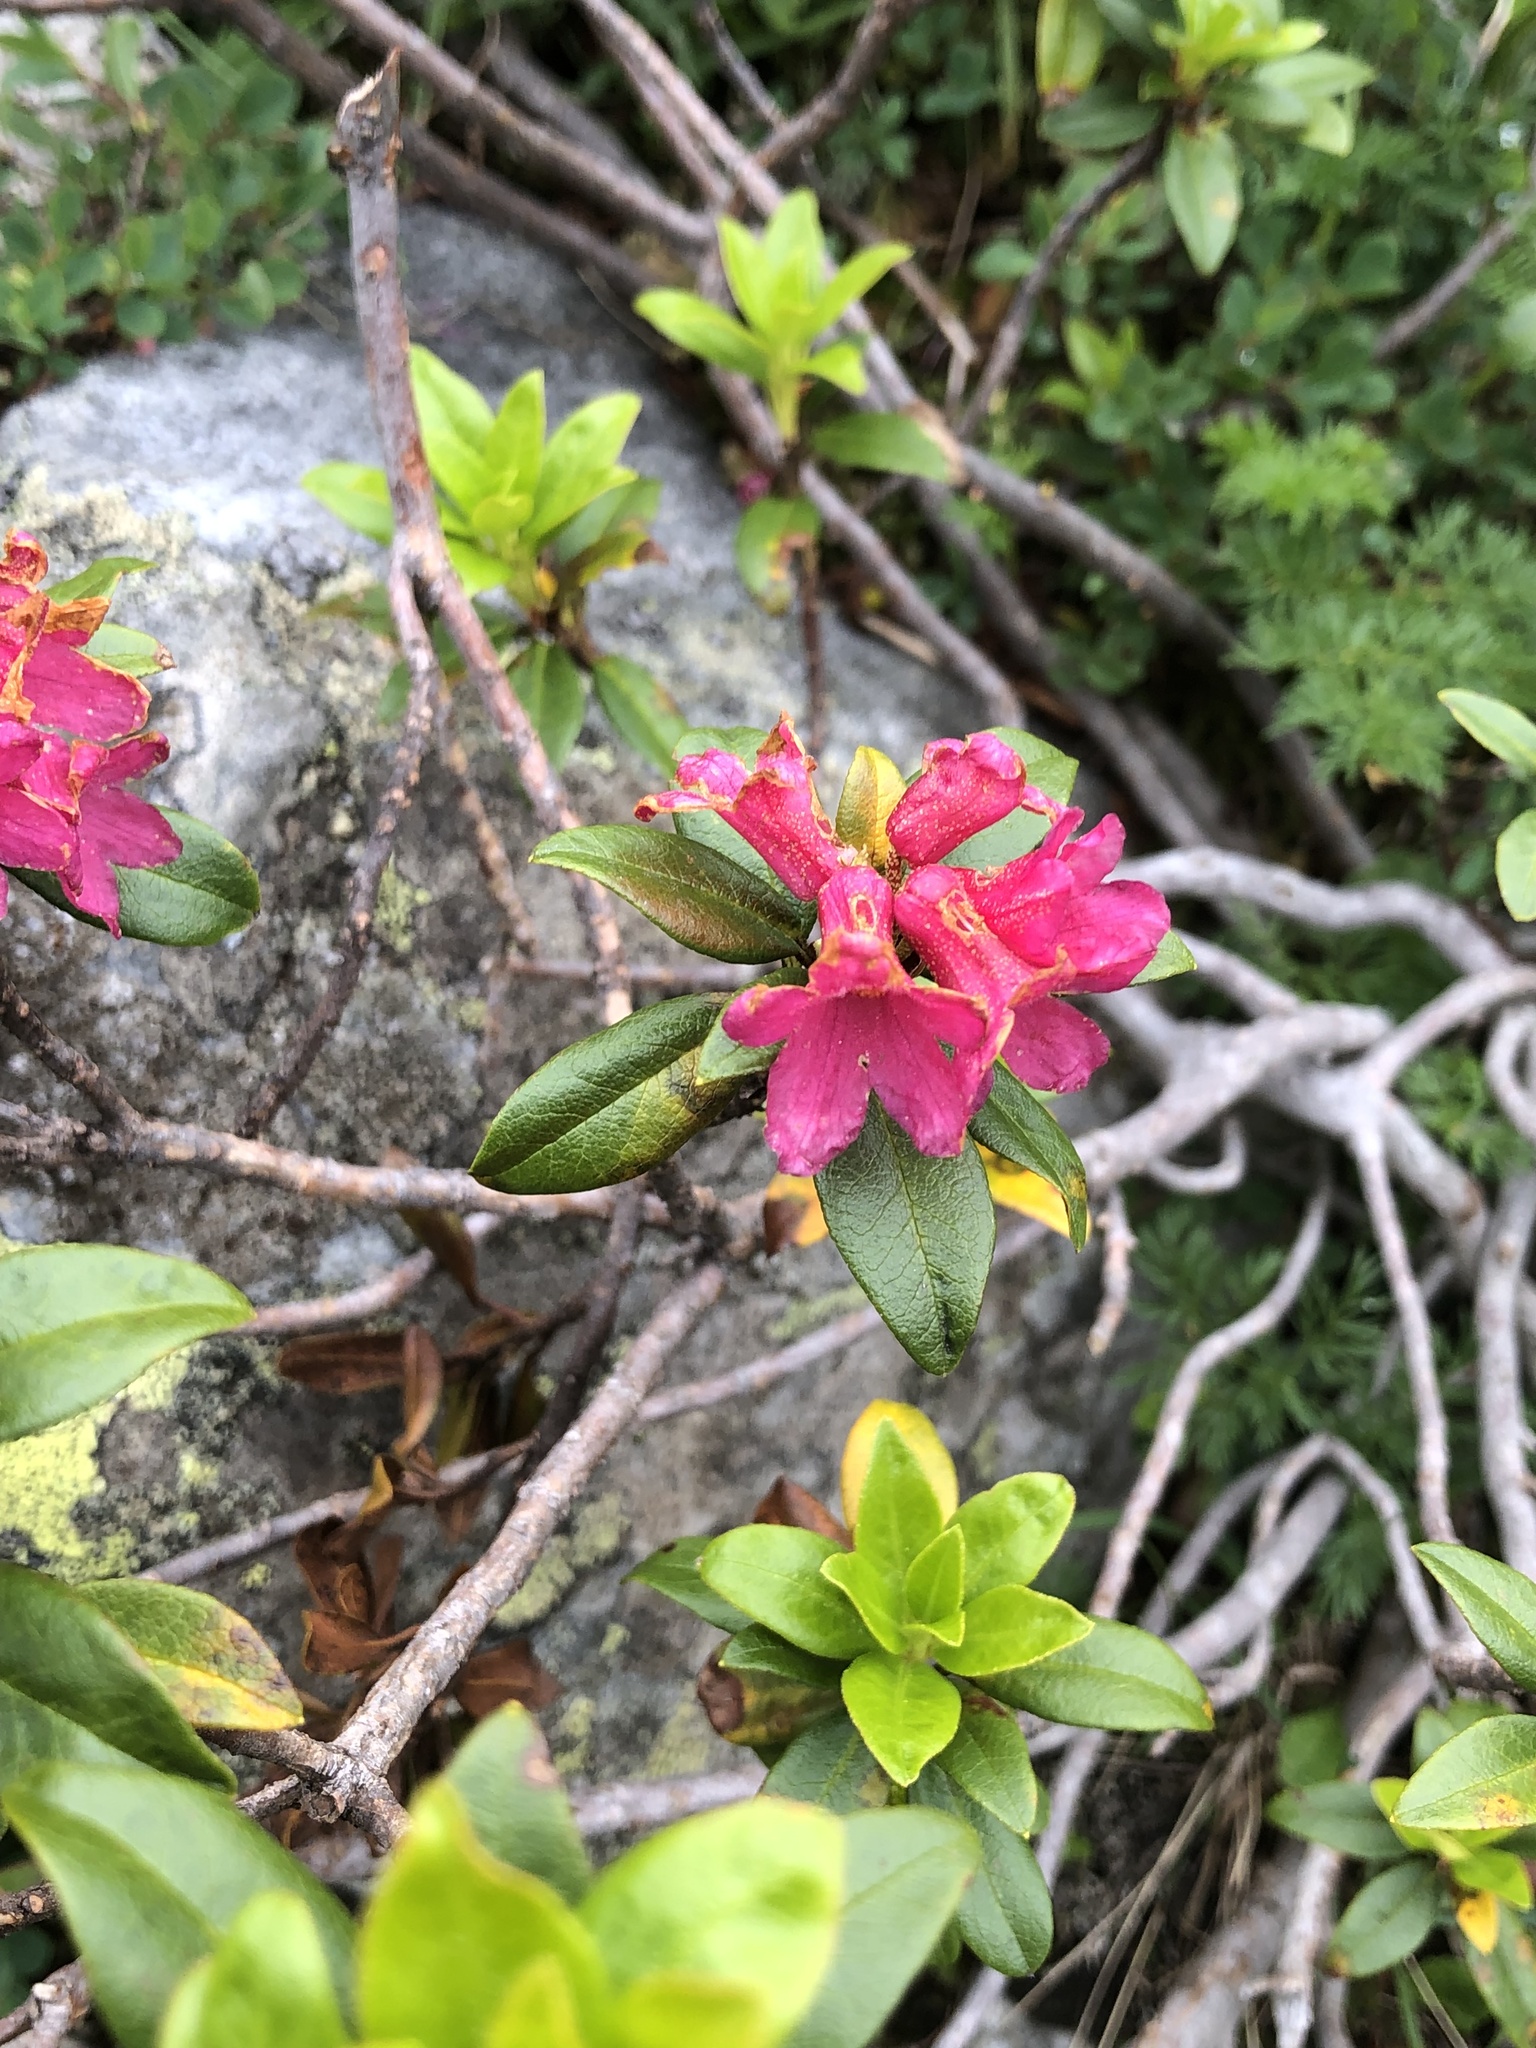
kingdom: Plantae
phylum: Tracheophyta
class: Magnoliopsida
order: Ericales
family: Ericaceae
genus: Rhododendron
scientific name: Rhododendron ferrugineum
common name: Alpenrose
